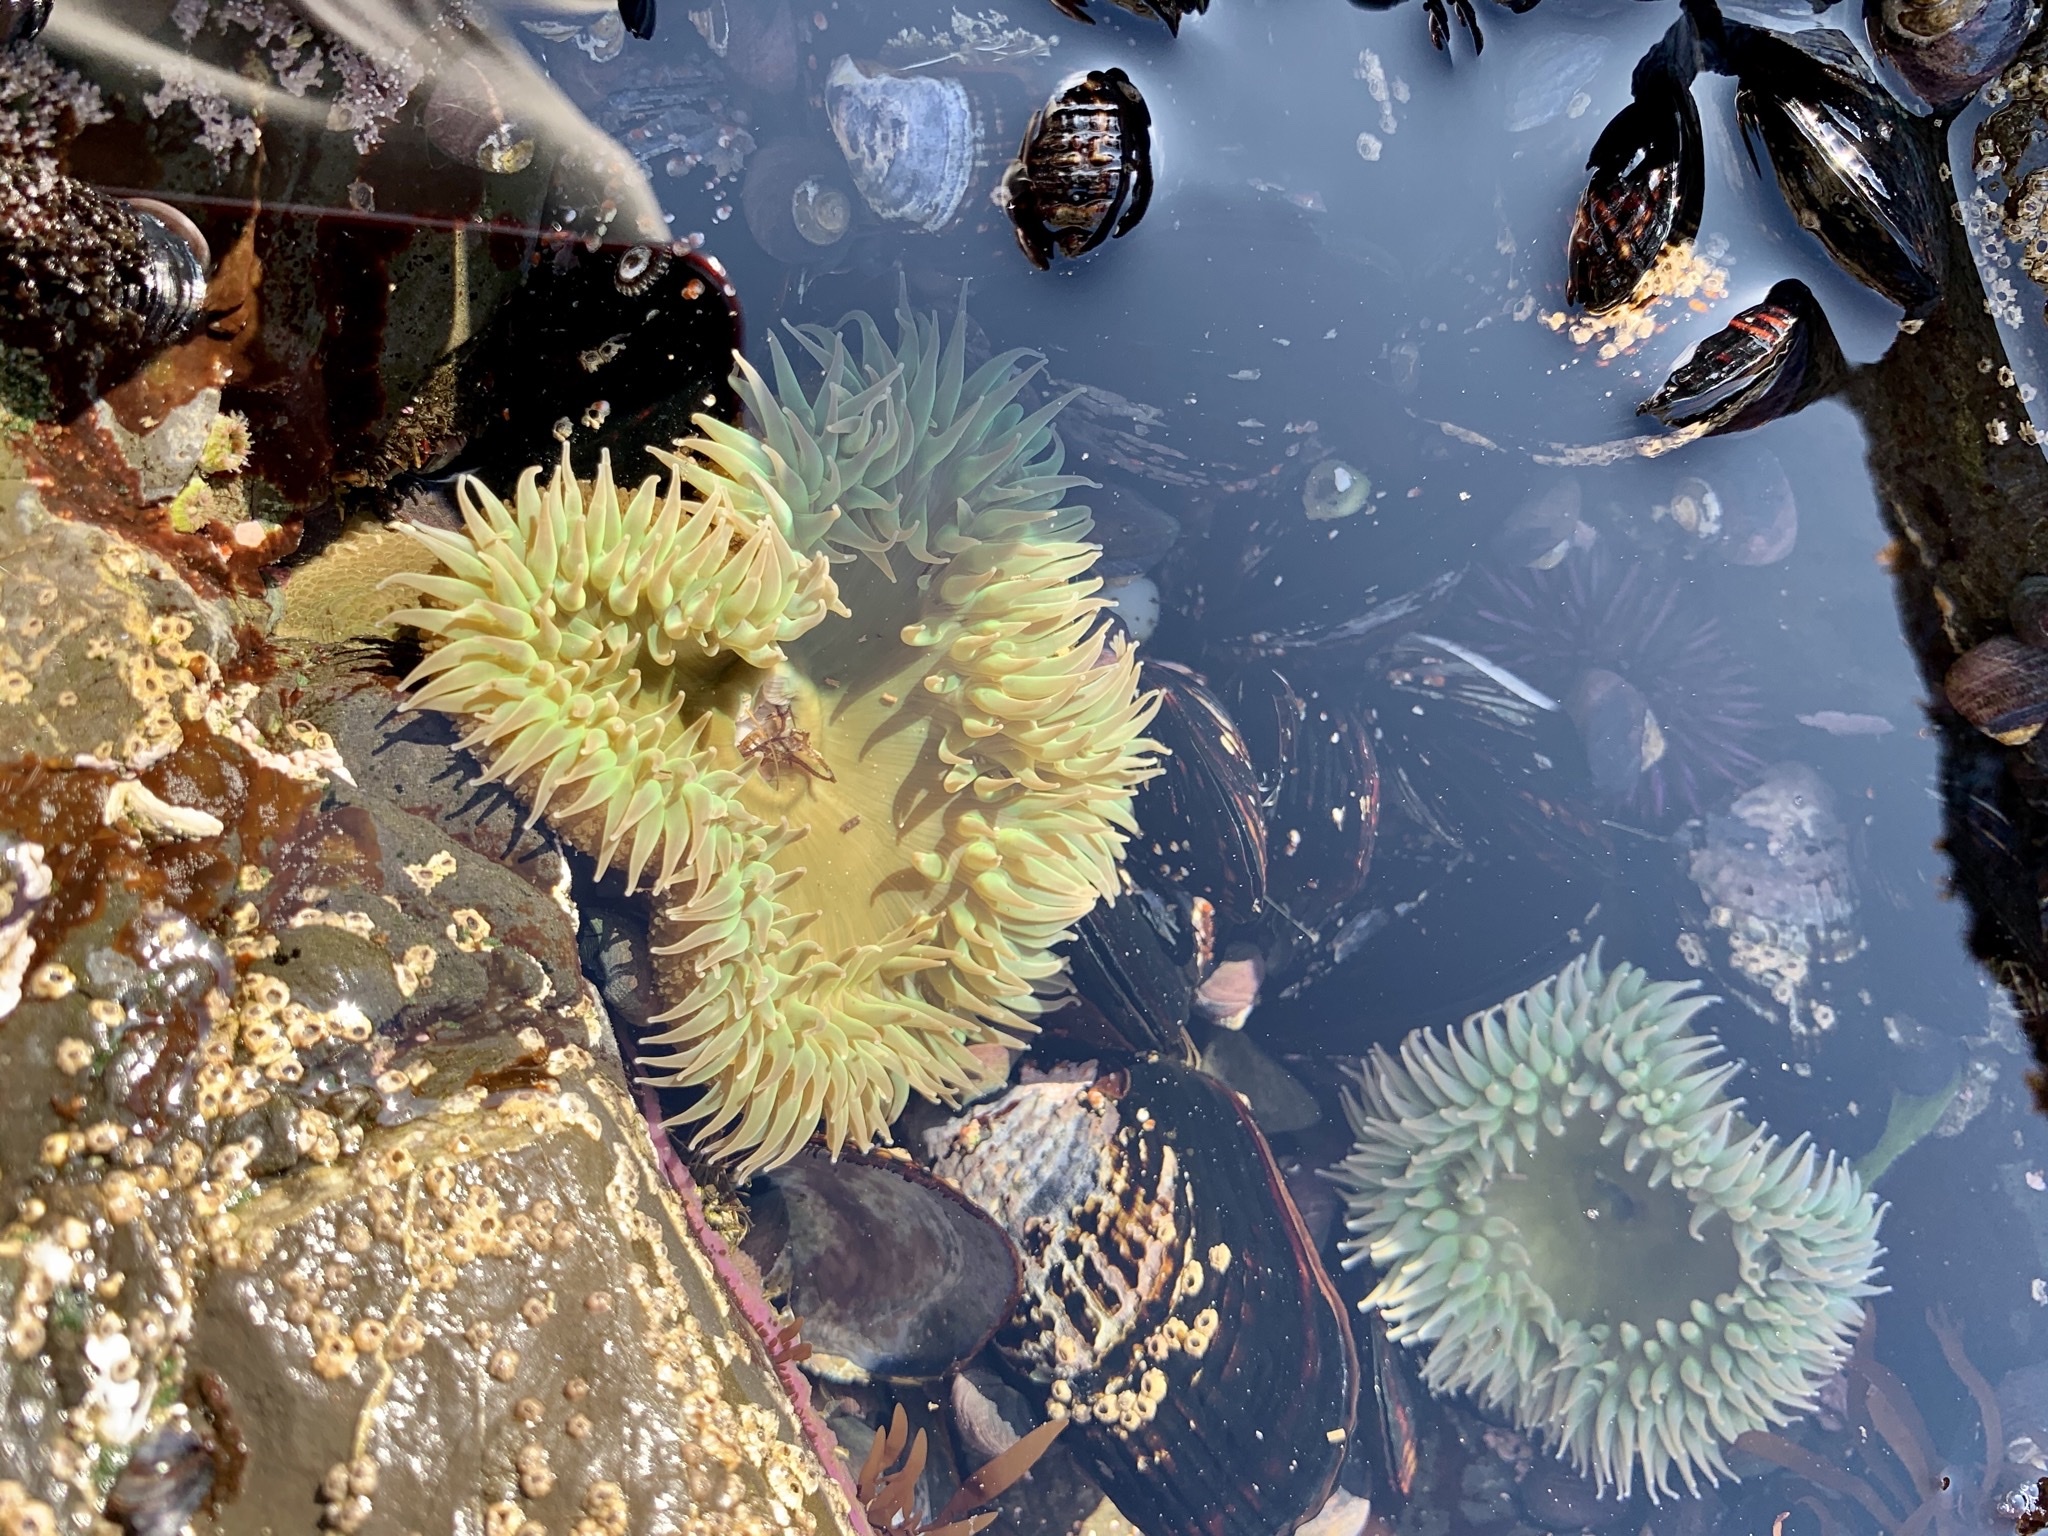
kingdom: Animalia
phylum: Cnidaria
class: Anthozoa
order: Actiniaria
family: Actiniidae
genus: Anthopleura
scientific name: Anthopleura xanthogrammica
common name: Giant green anemone
